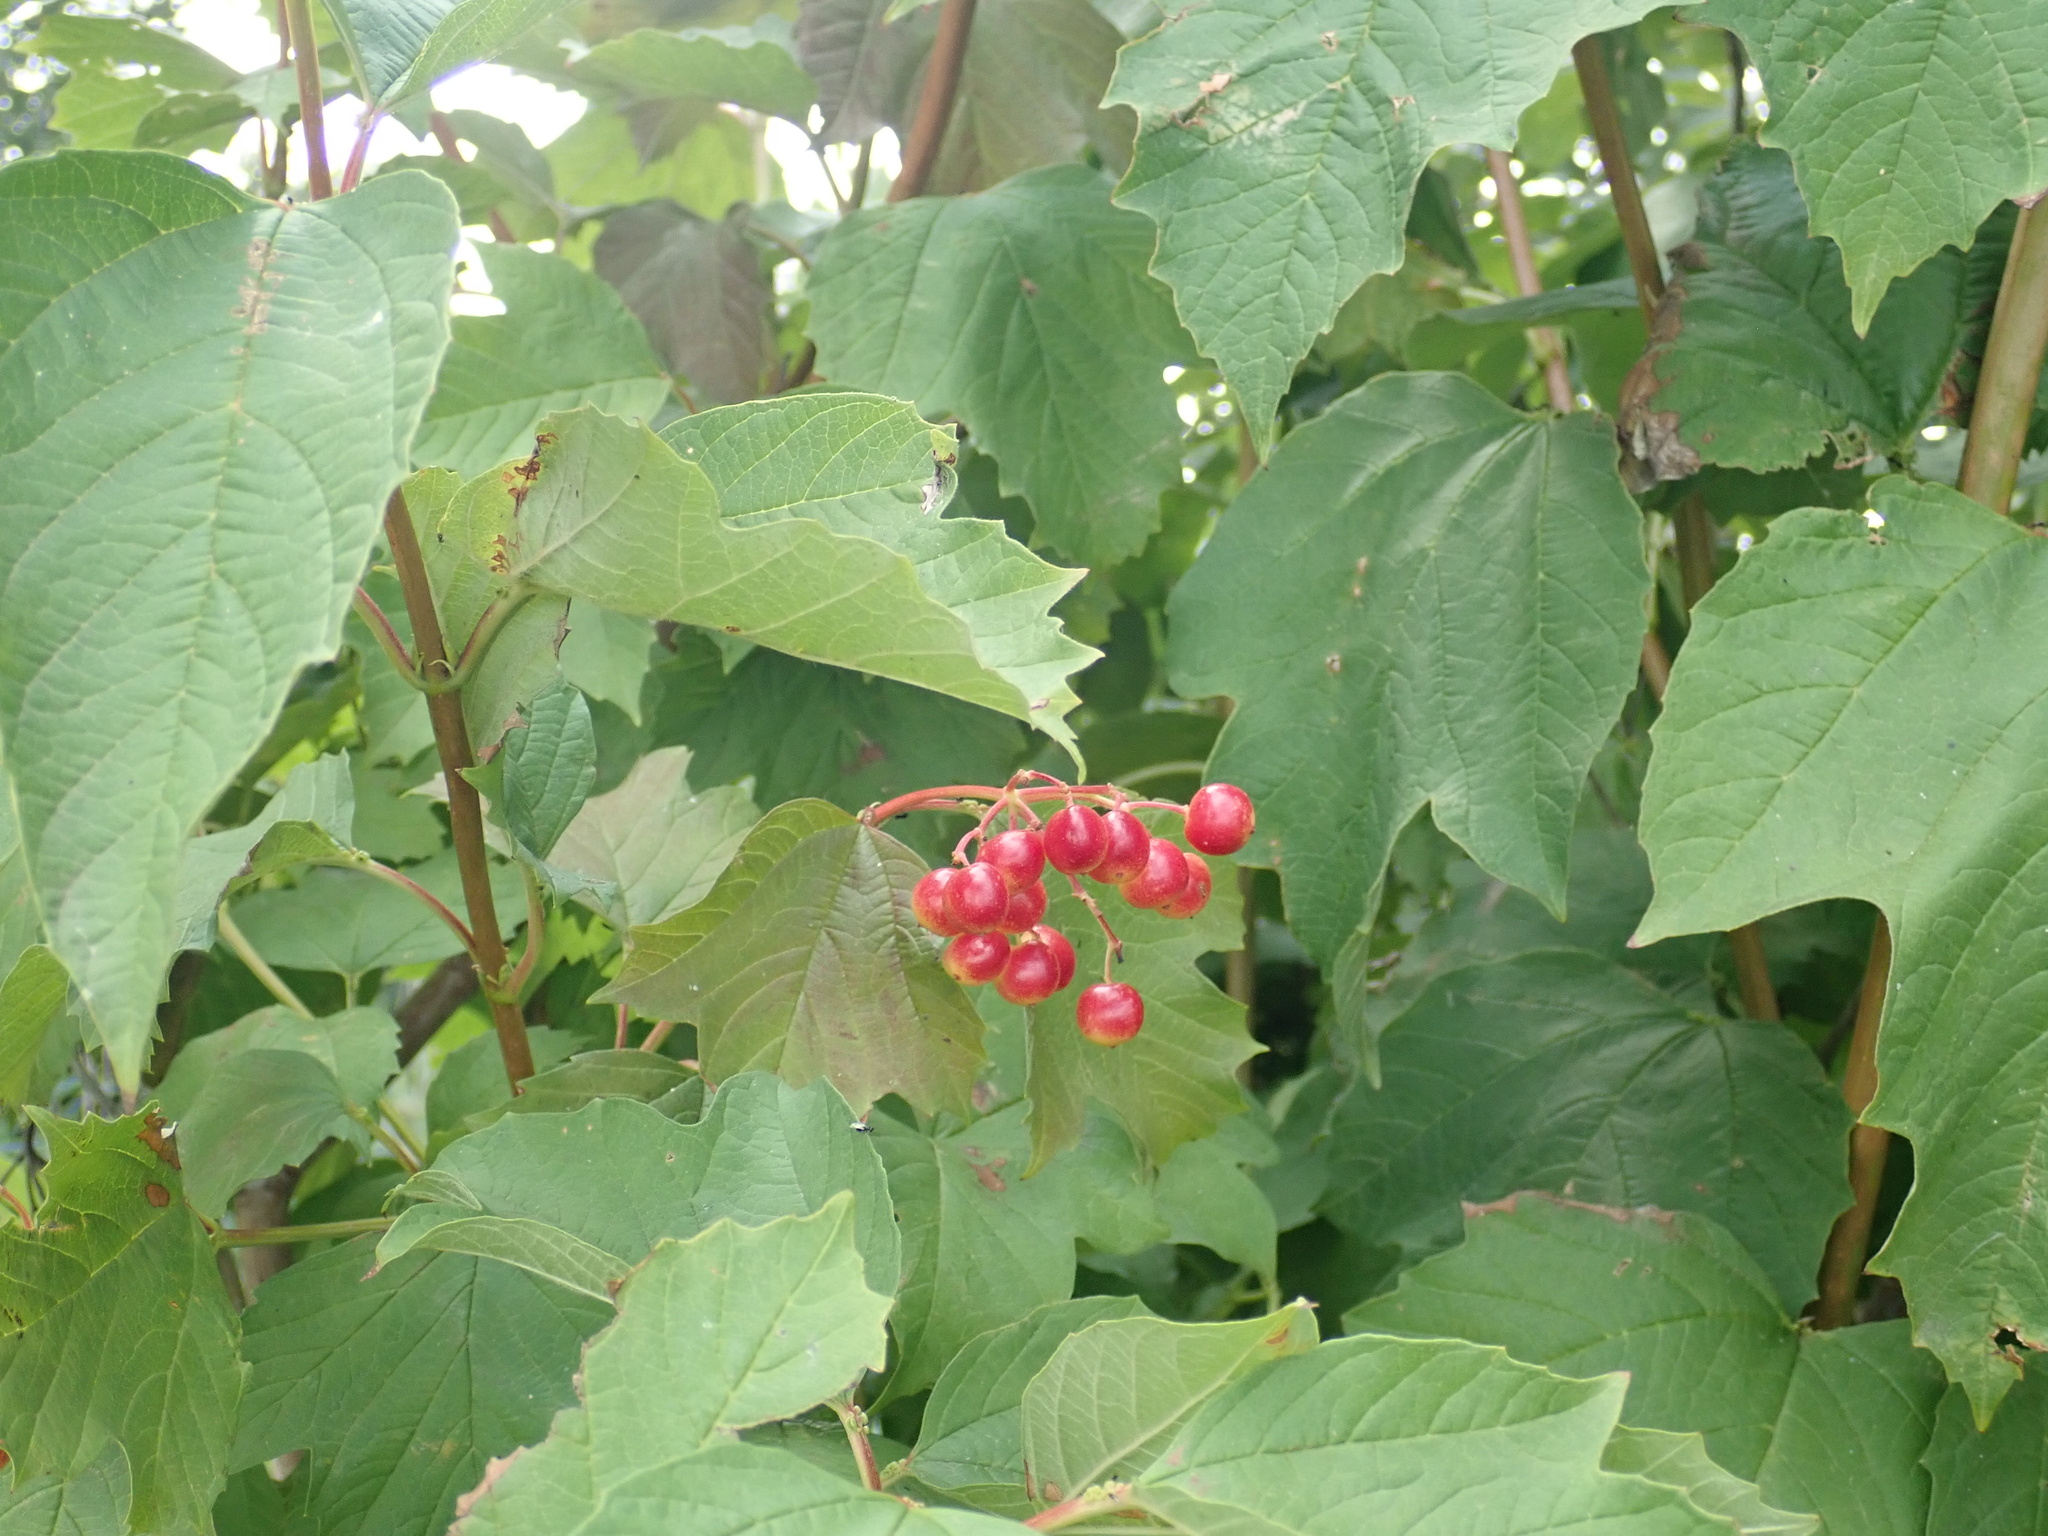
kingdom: Plantae
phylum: Tracheophyta
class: Magnoliopsida
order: Dipsacales
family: Viburnaceae
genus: Viburnum
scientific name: Viburnum opulus
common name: Guelder-rose
